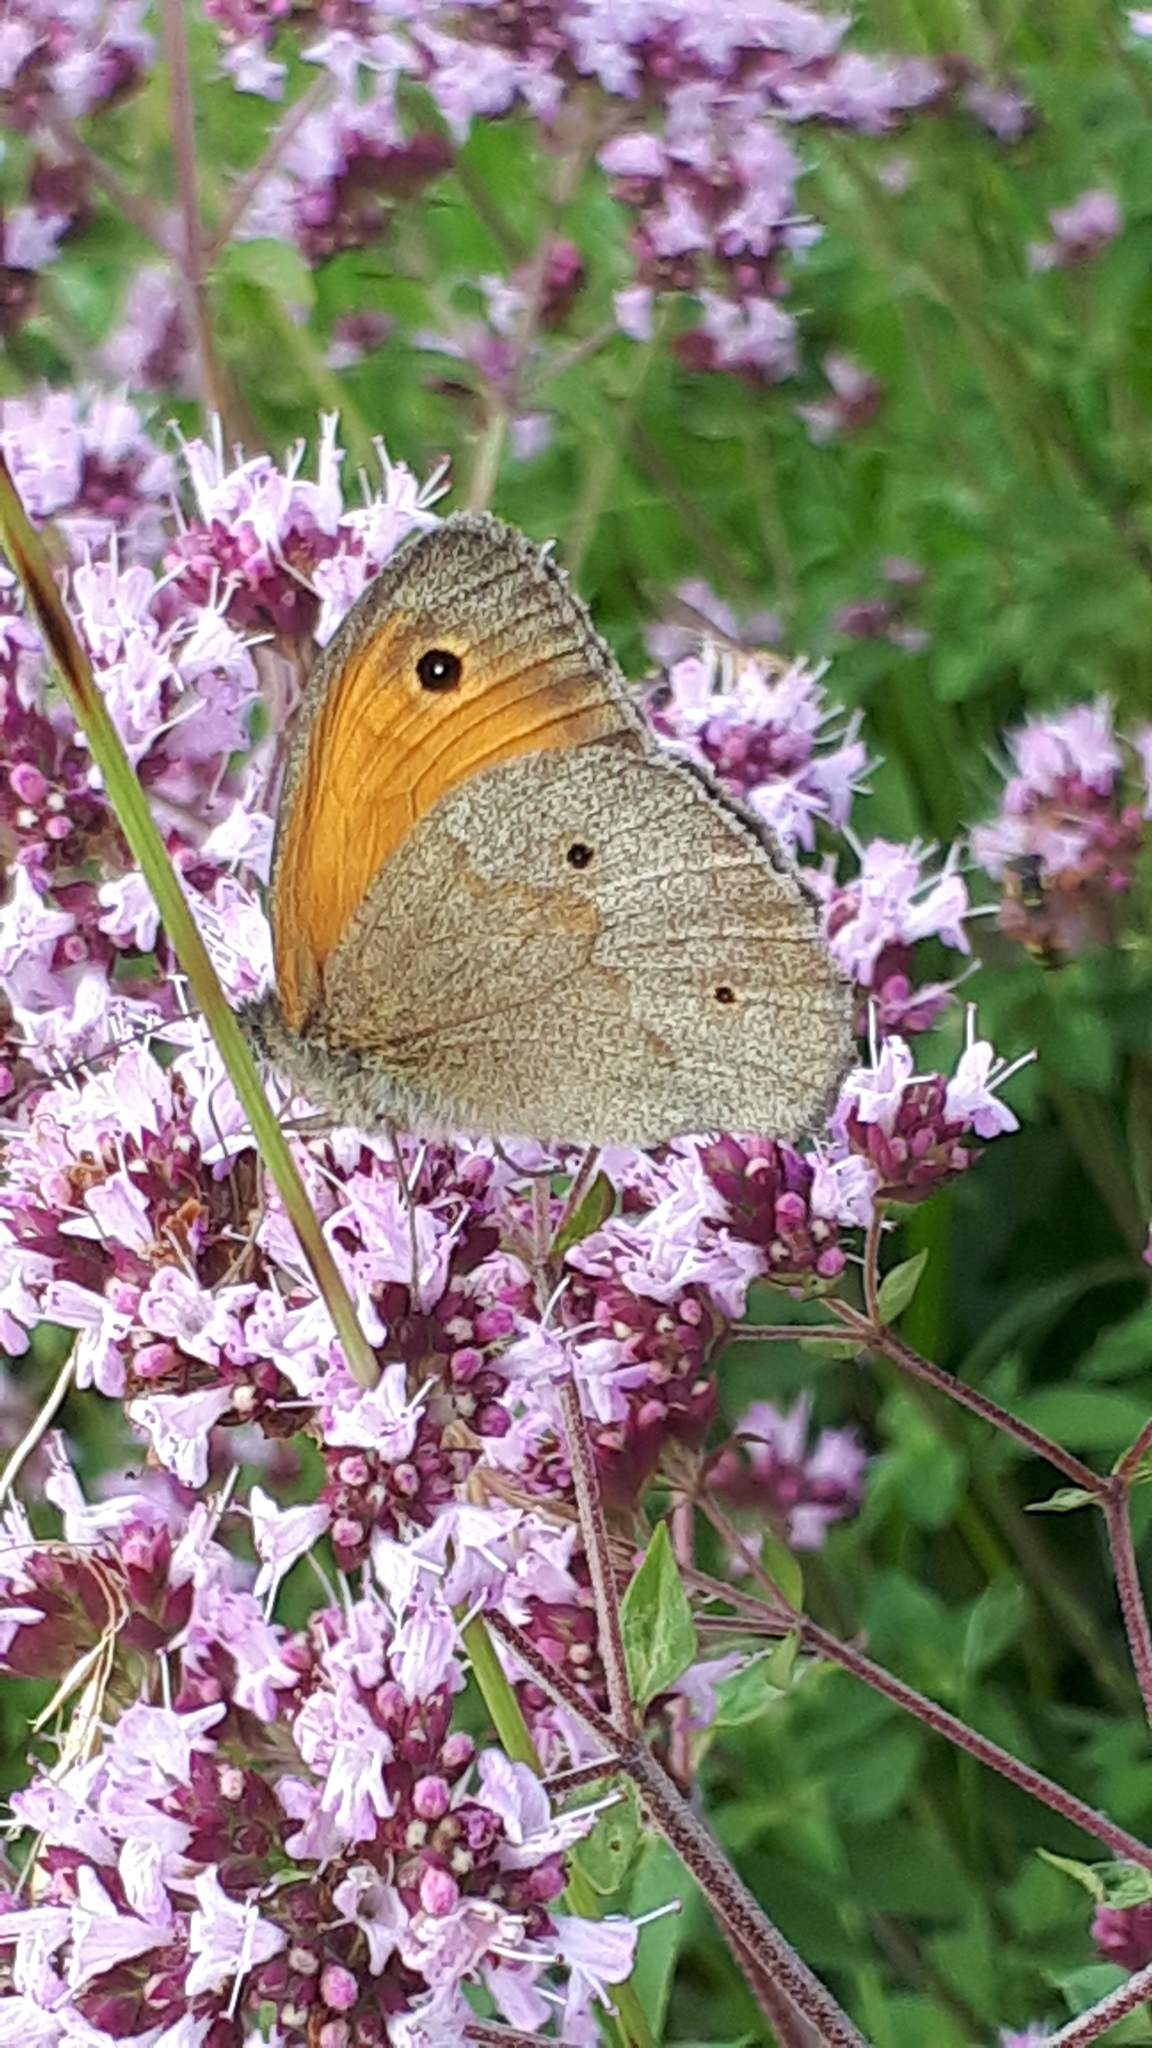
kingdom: Animalia
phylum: Arthropoda
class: Insecta
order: Lepidoptera
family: Nymphalidae
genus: Maniola
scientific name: Maniola jurtina
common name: Meadow brown
